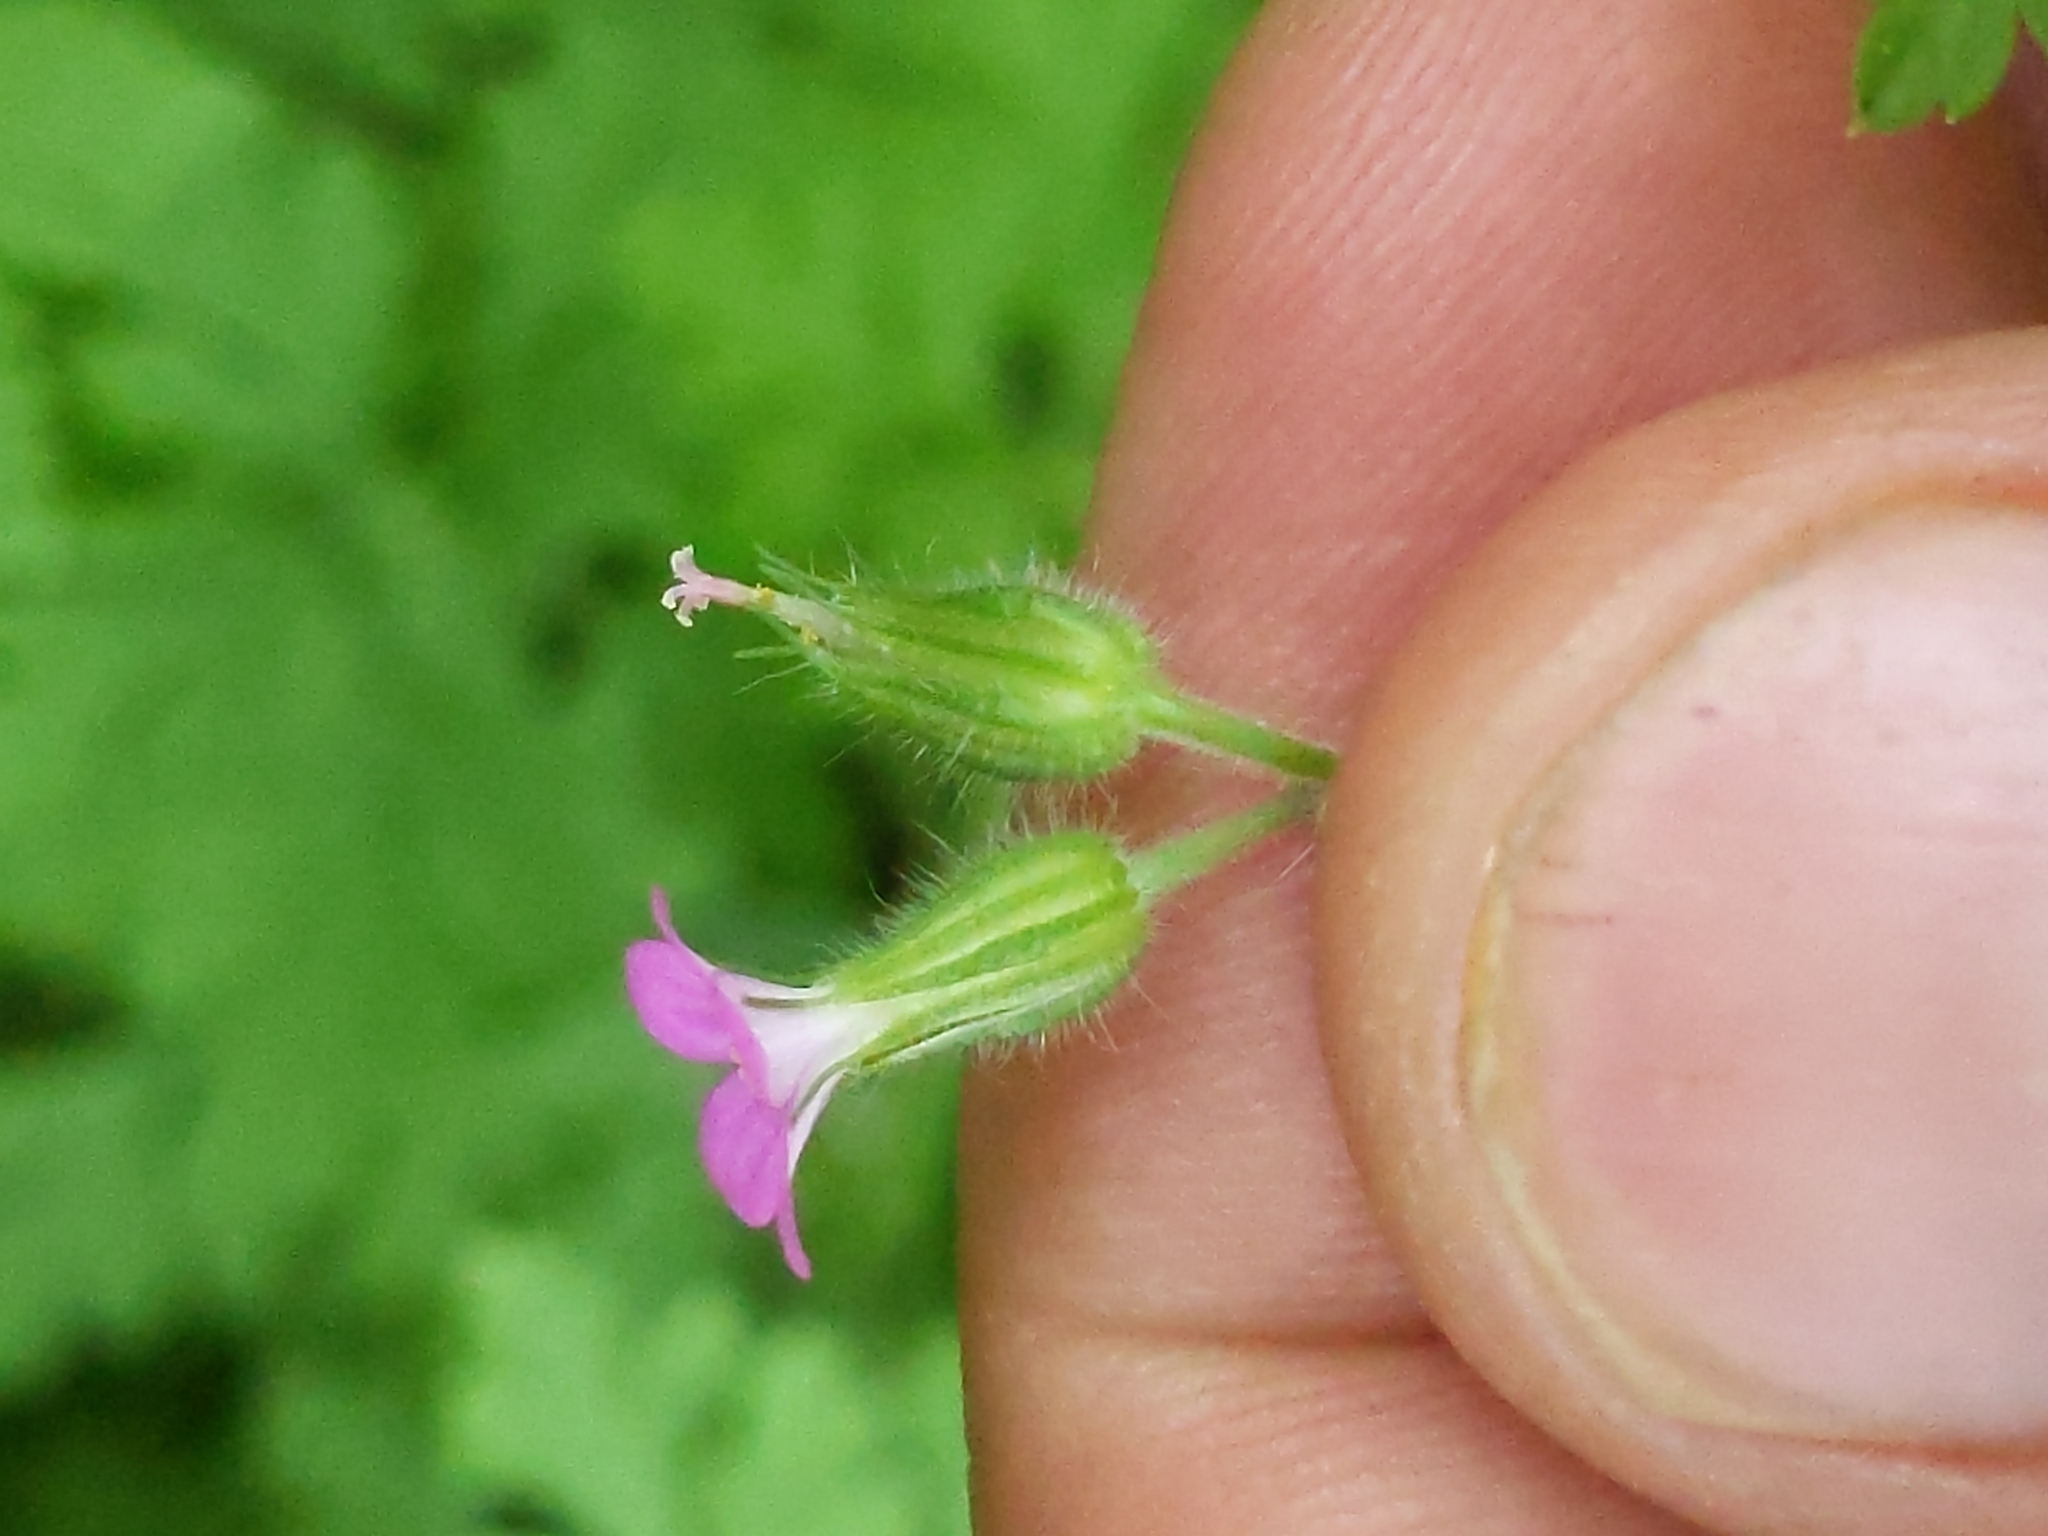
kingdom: Plantae
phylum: Tracheophyta
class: Magnoliopsida
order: Geraniales
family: Geraniaceae
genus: Geranium
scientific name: Geranium purpureum
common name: Little-robin
